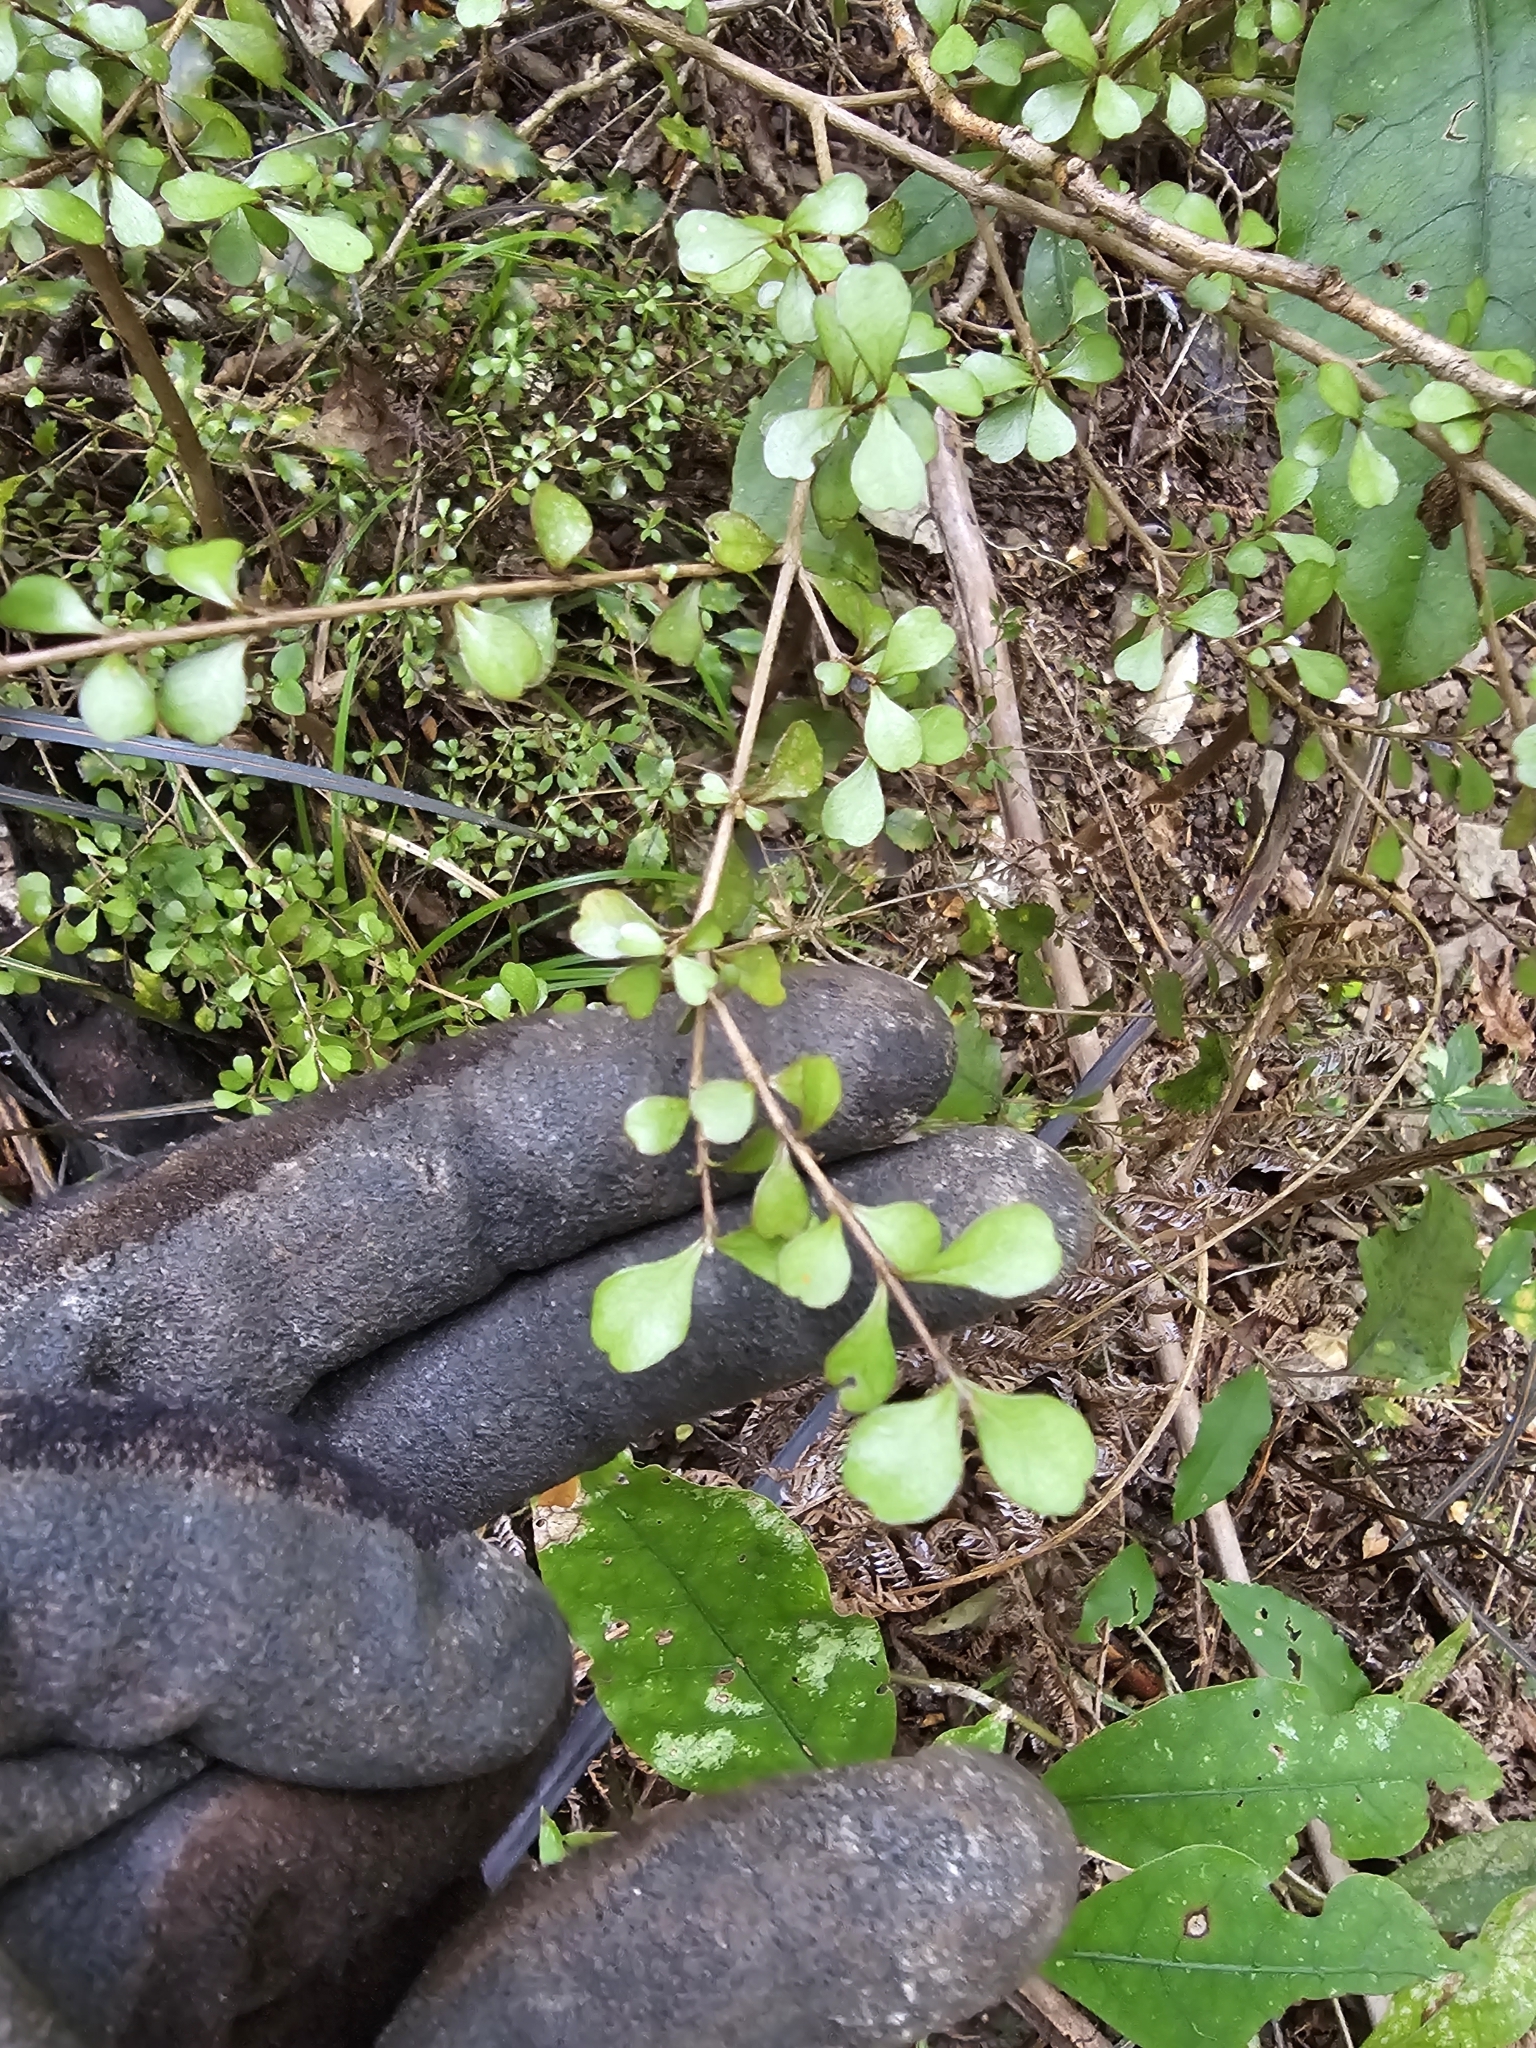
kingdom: Plantae
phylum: Tracheophyta
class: Magnoliopsida
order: Myrtales
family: Myrtaceae
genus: Lophomyrtus
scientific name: Lophomyrtus obcordata
